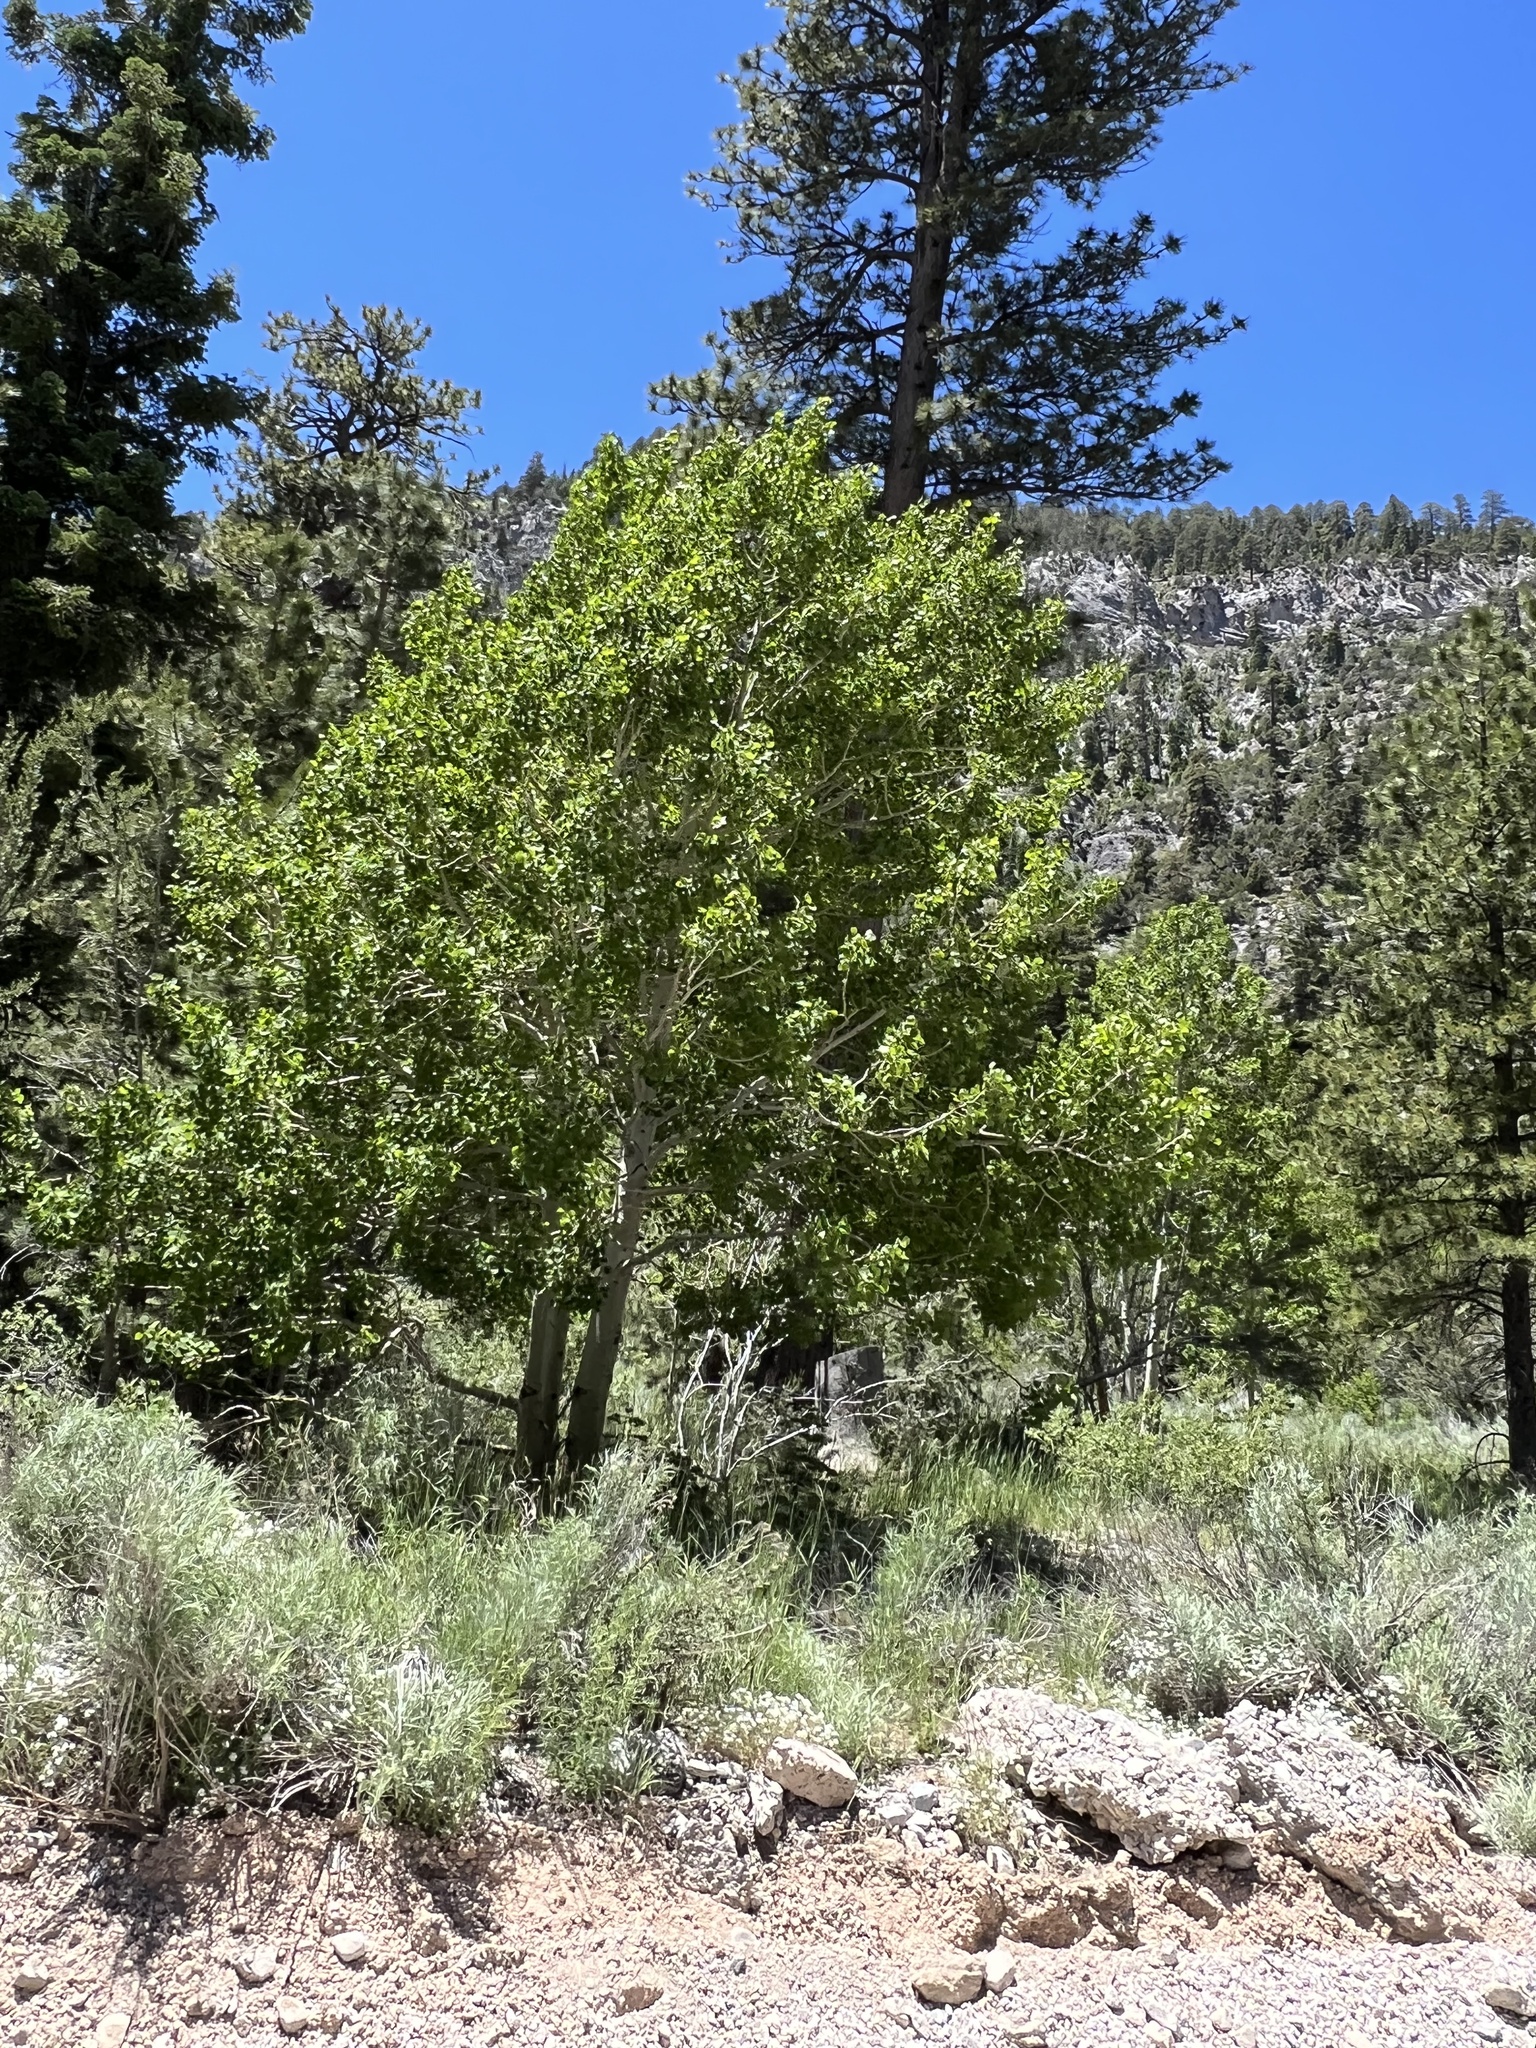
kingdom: Plantae
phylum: Tracheophyta
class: Magnoliopsida
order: Malpighiales
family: Salicaceae
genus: Populus
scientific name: Populus tremuloides
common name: Quaking aspen
